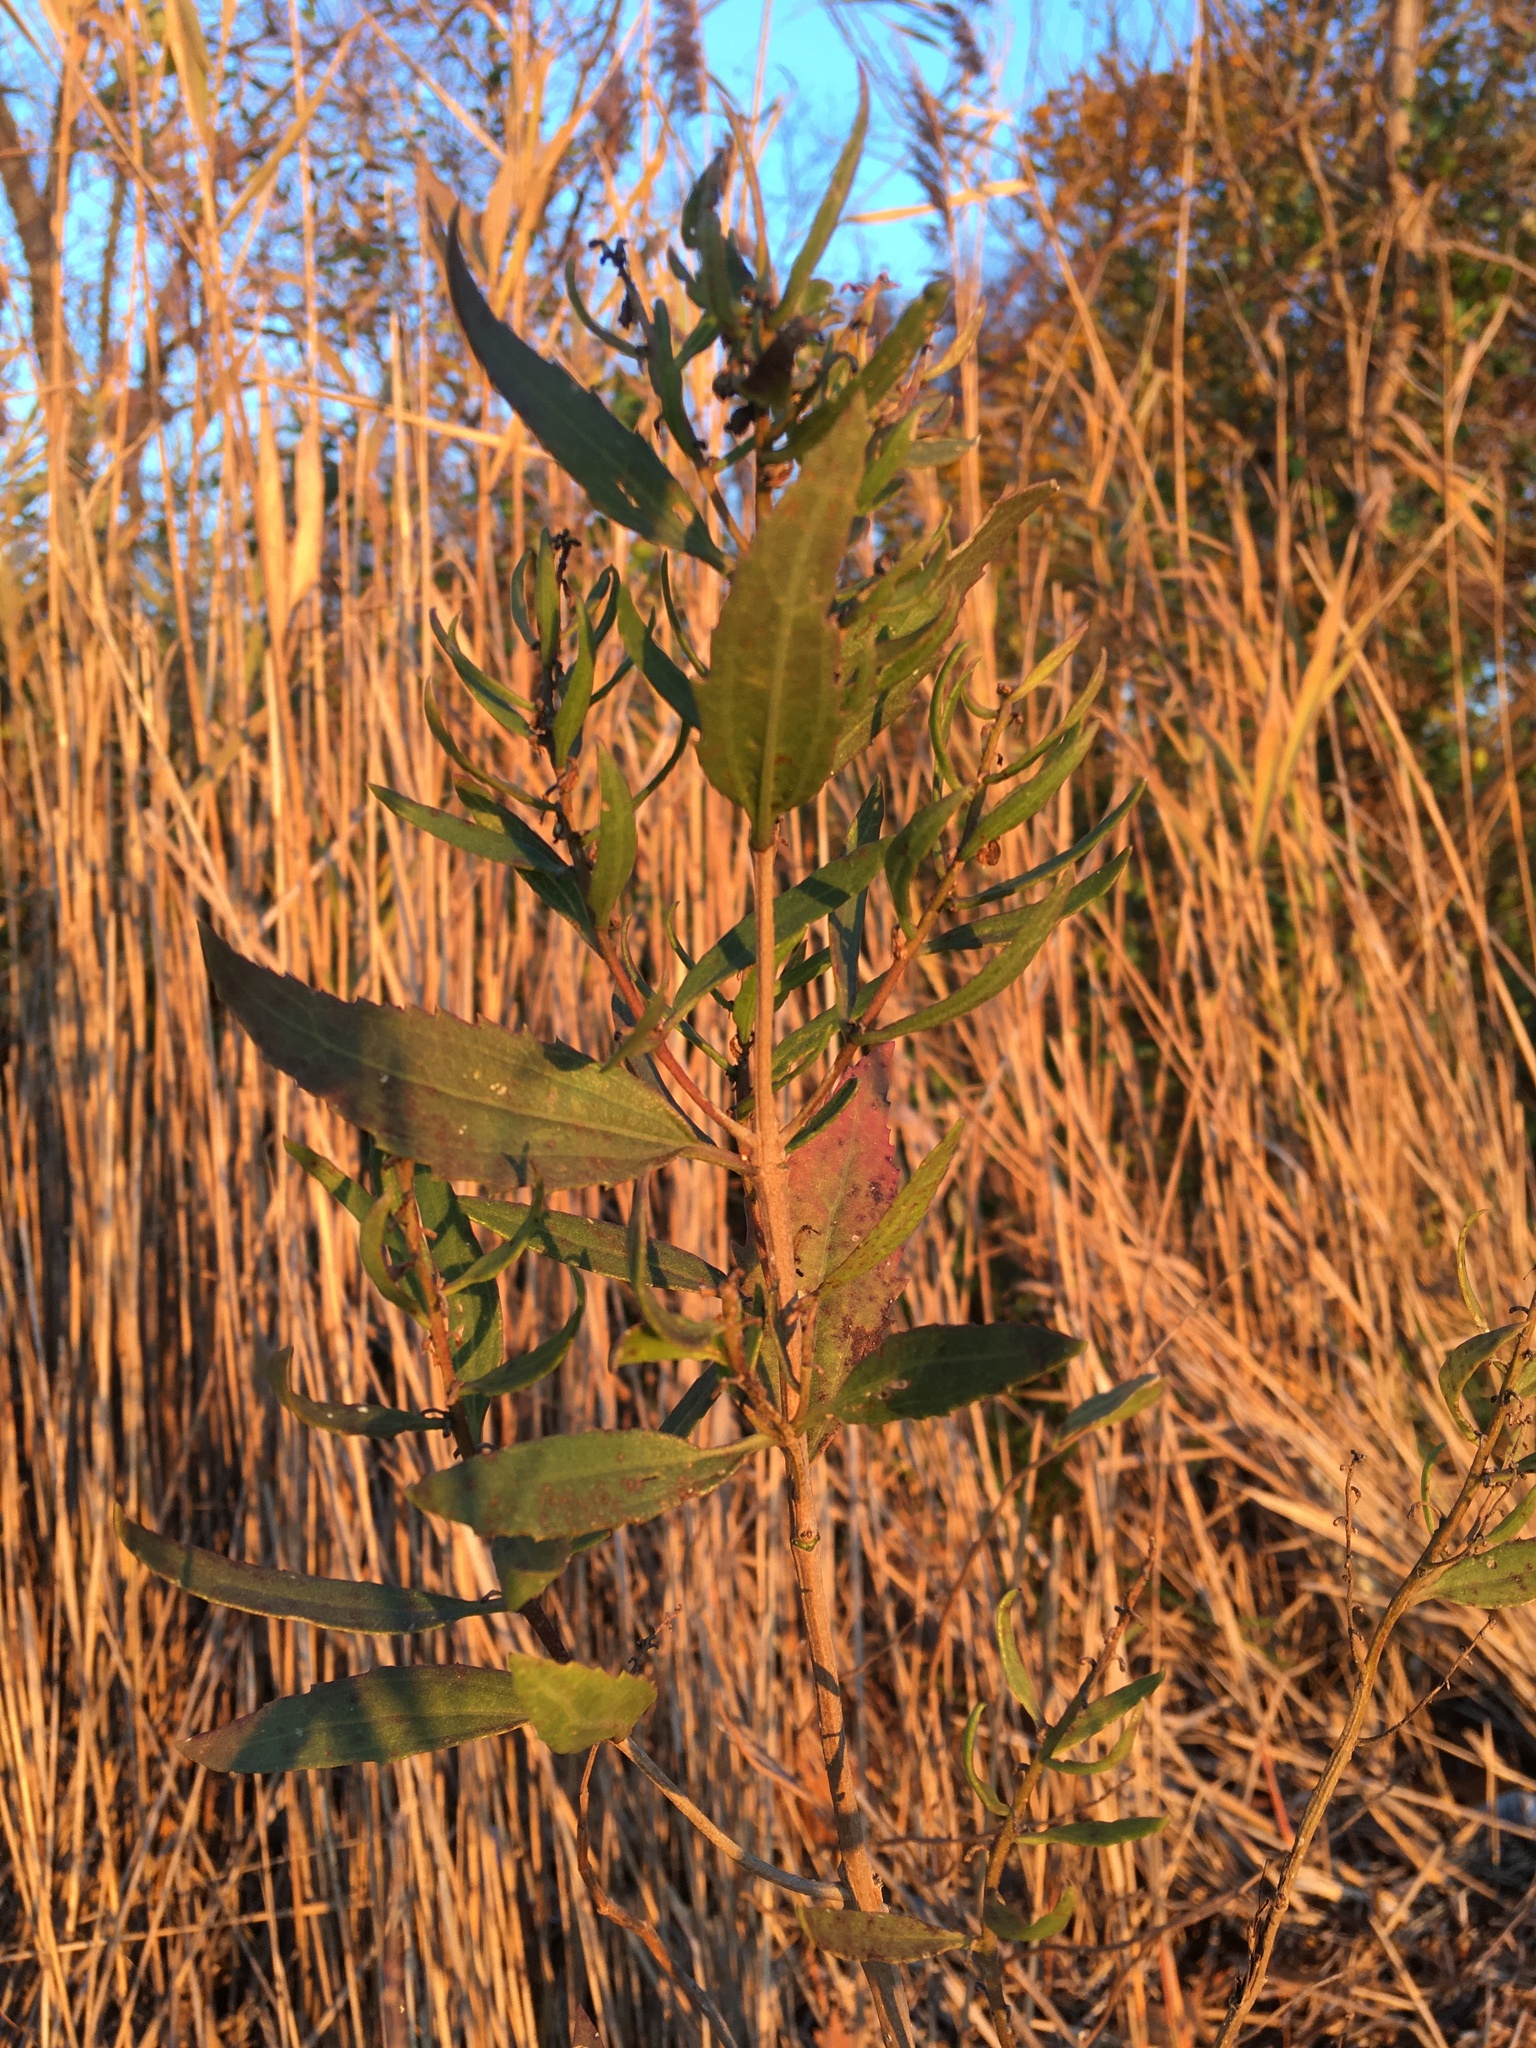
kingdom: Plantae
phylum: Tracheophyta
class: Magnoliopsida
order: Asterales
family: Asteraceae
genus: Iva
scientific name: Iva frutescens
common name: Big-leaved marsh-elder
